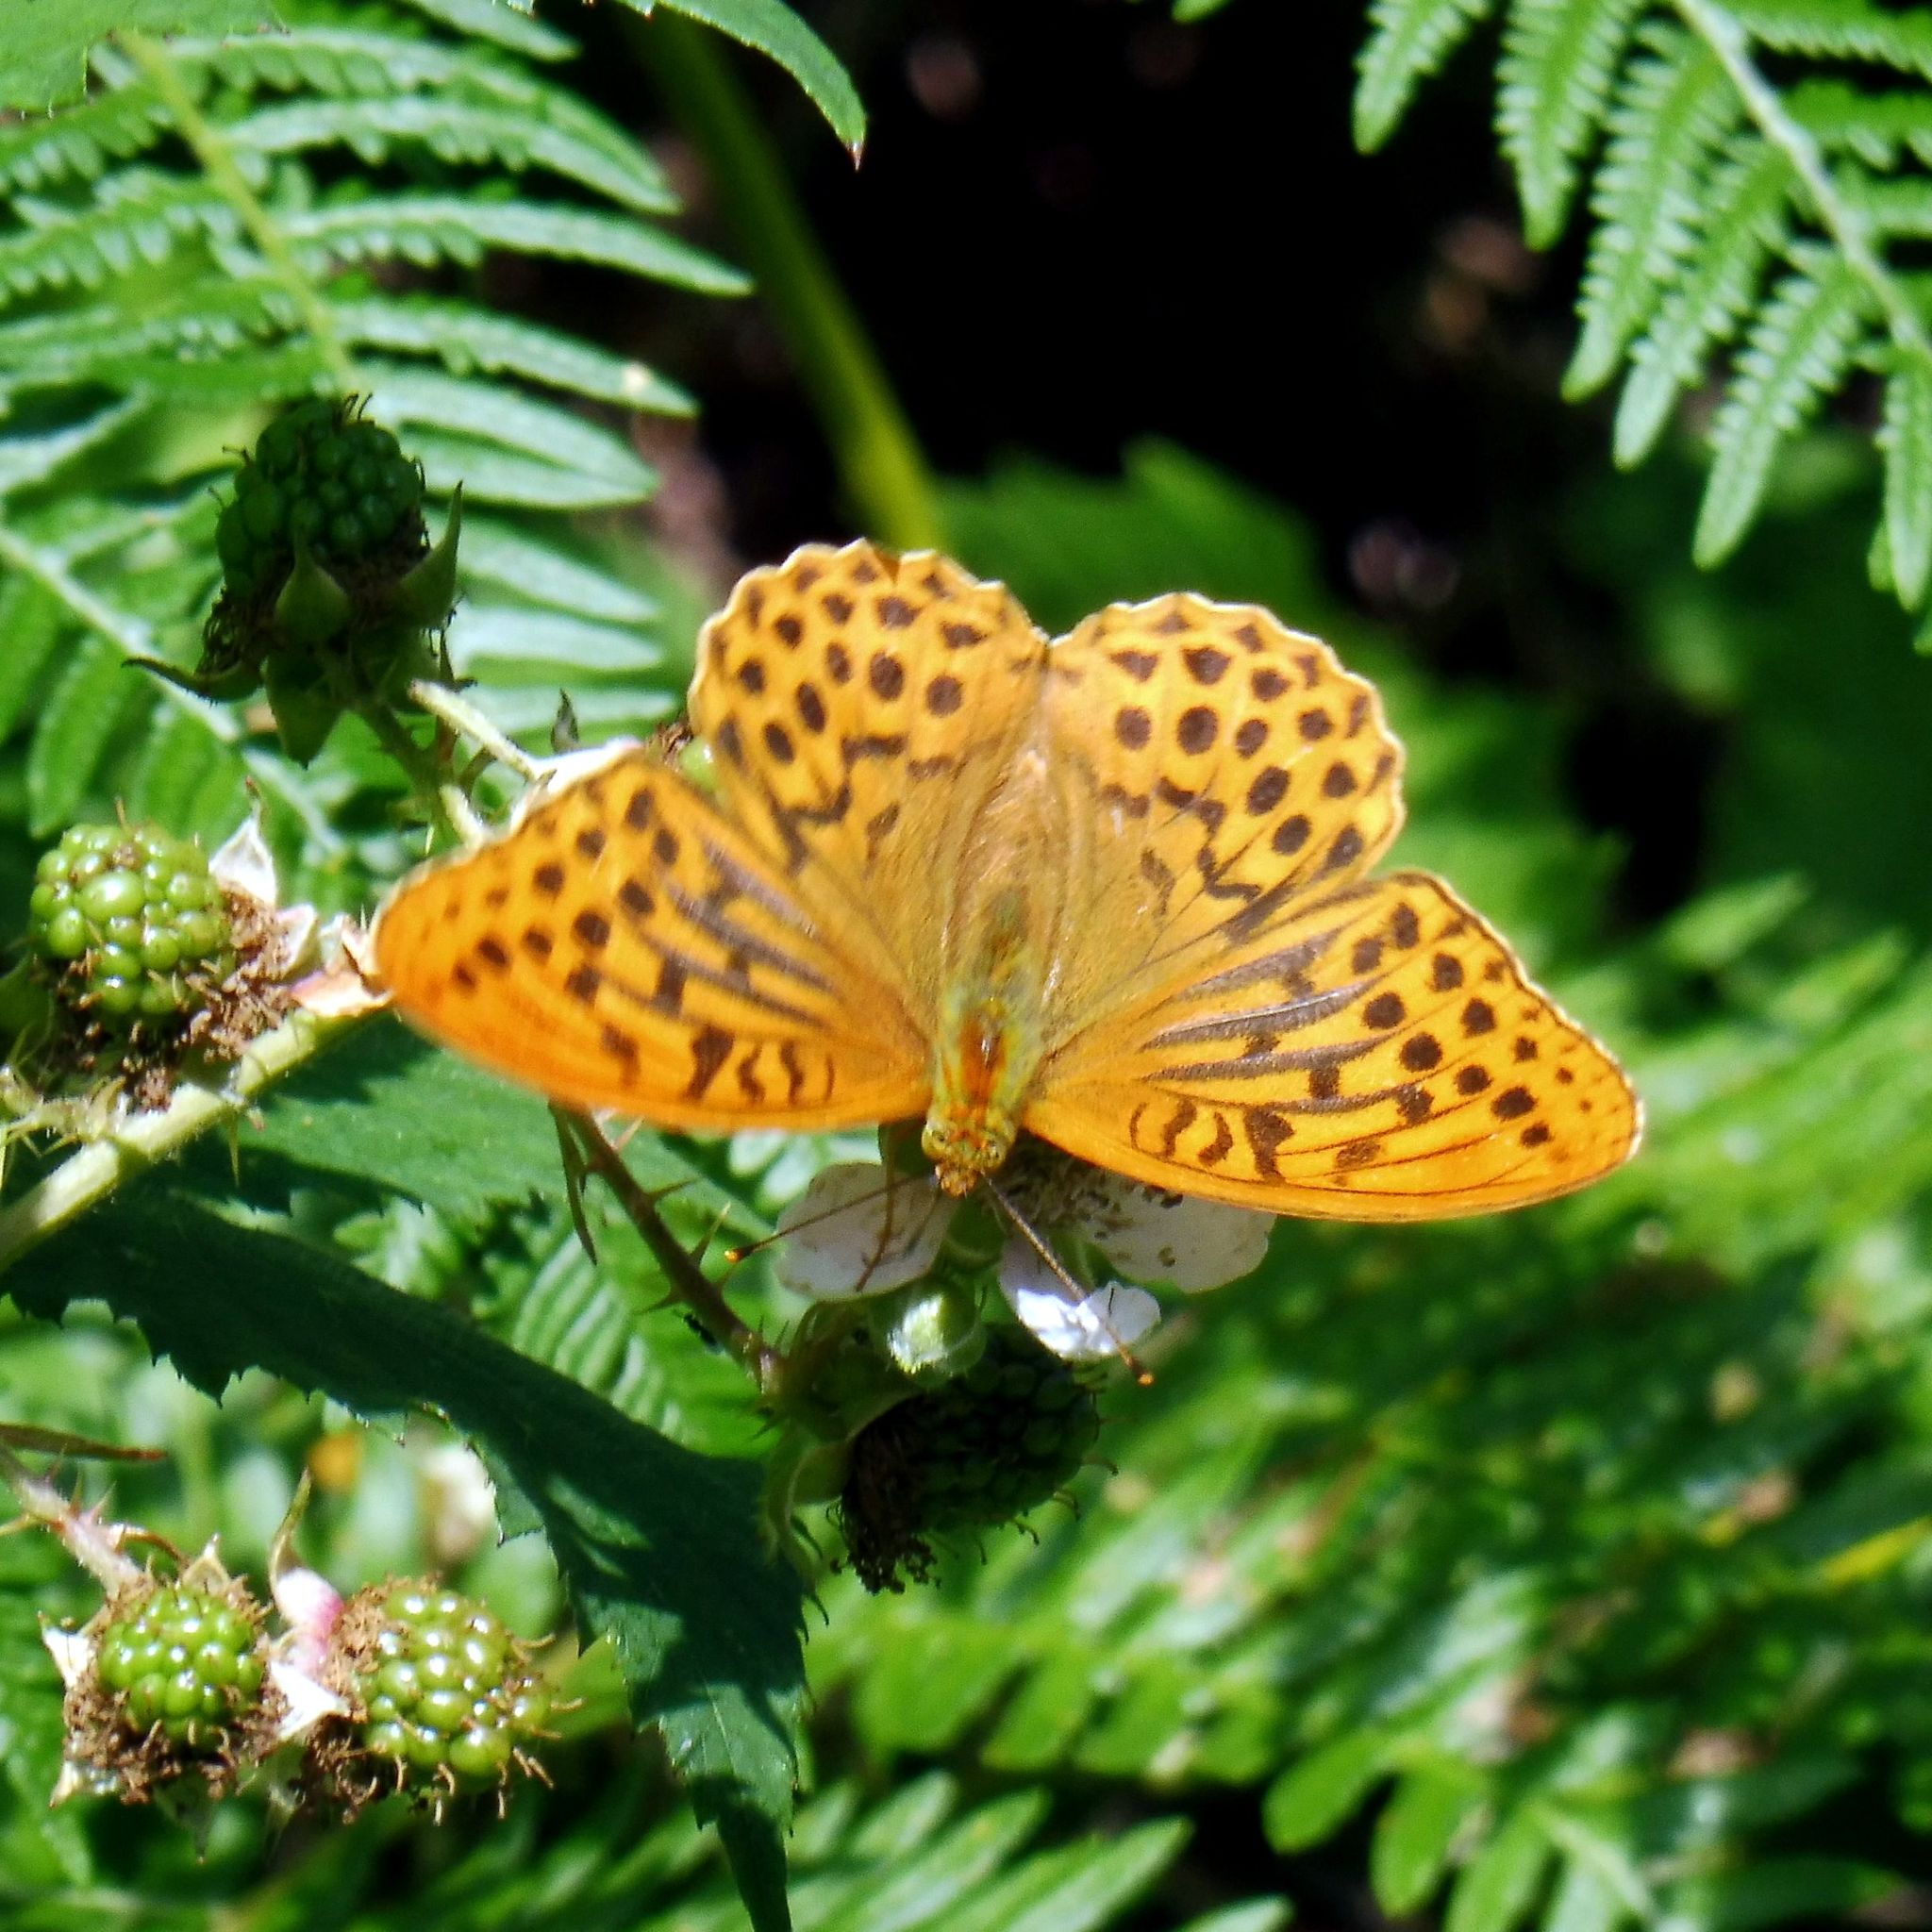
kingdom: Animalia
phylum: Arthropoda
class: Insecta
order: Lepidoptera
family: Nymphalidae
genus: Argynnis
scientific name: Argynnis paphia
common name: Silver-washed fritillary
